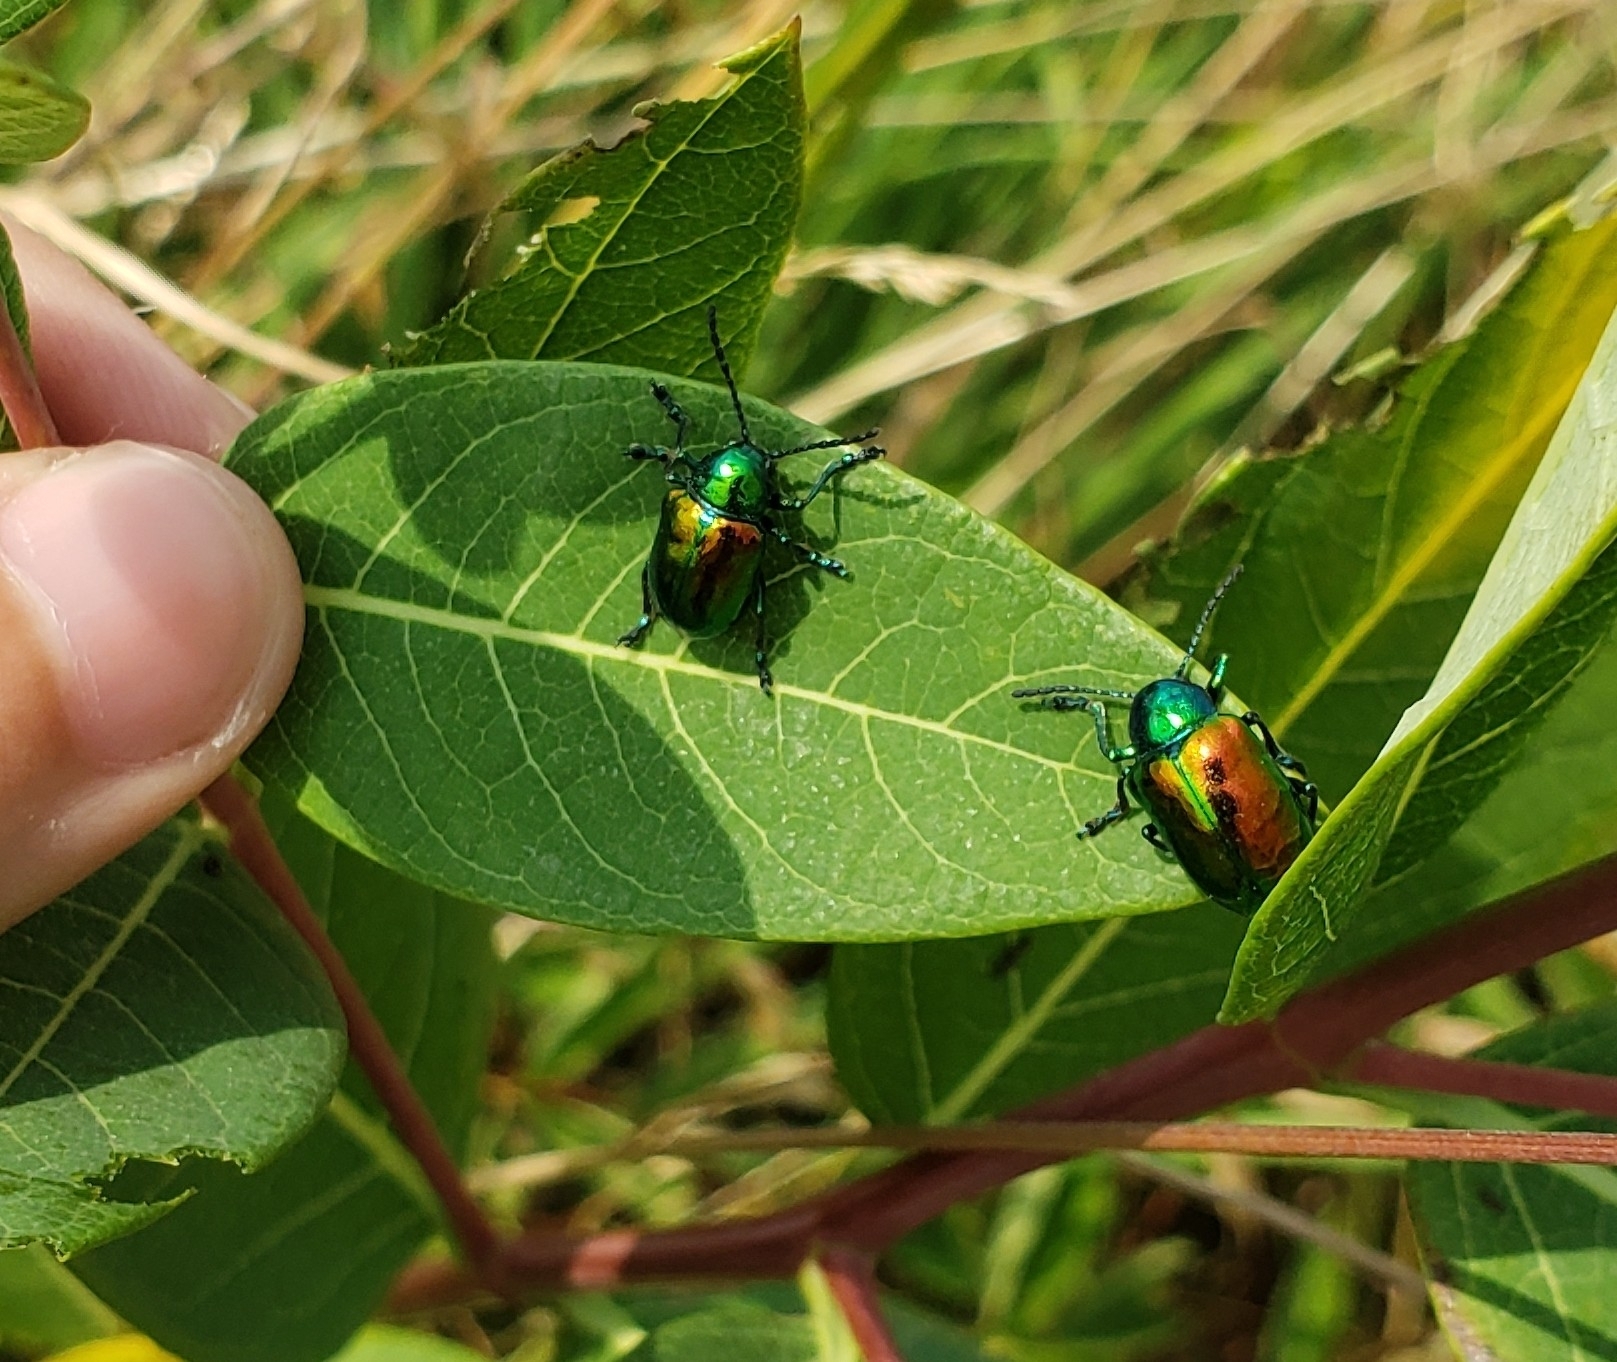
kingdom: Animalia
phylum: Arthropoda
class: Insecta
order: Coleoptera
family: Chrysomelidae
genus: Chrysochus
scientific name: Chrysochus auratus
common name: Dogbane leaf beetle
